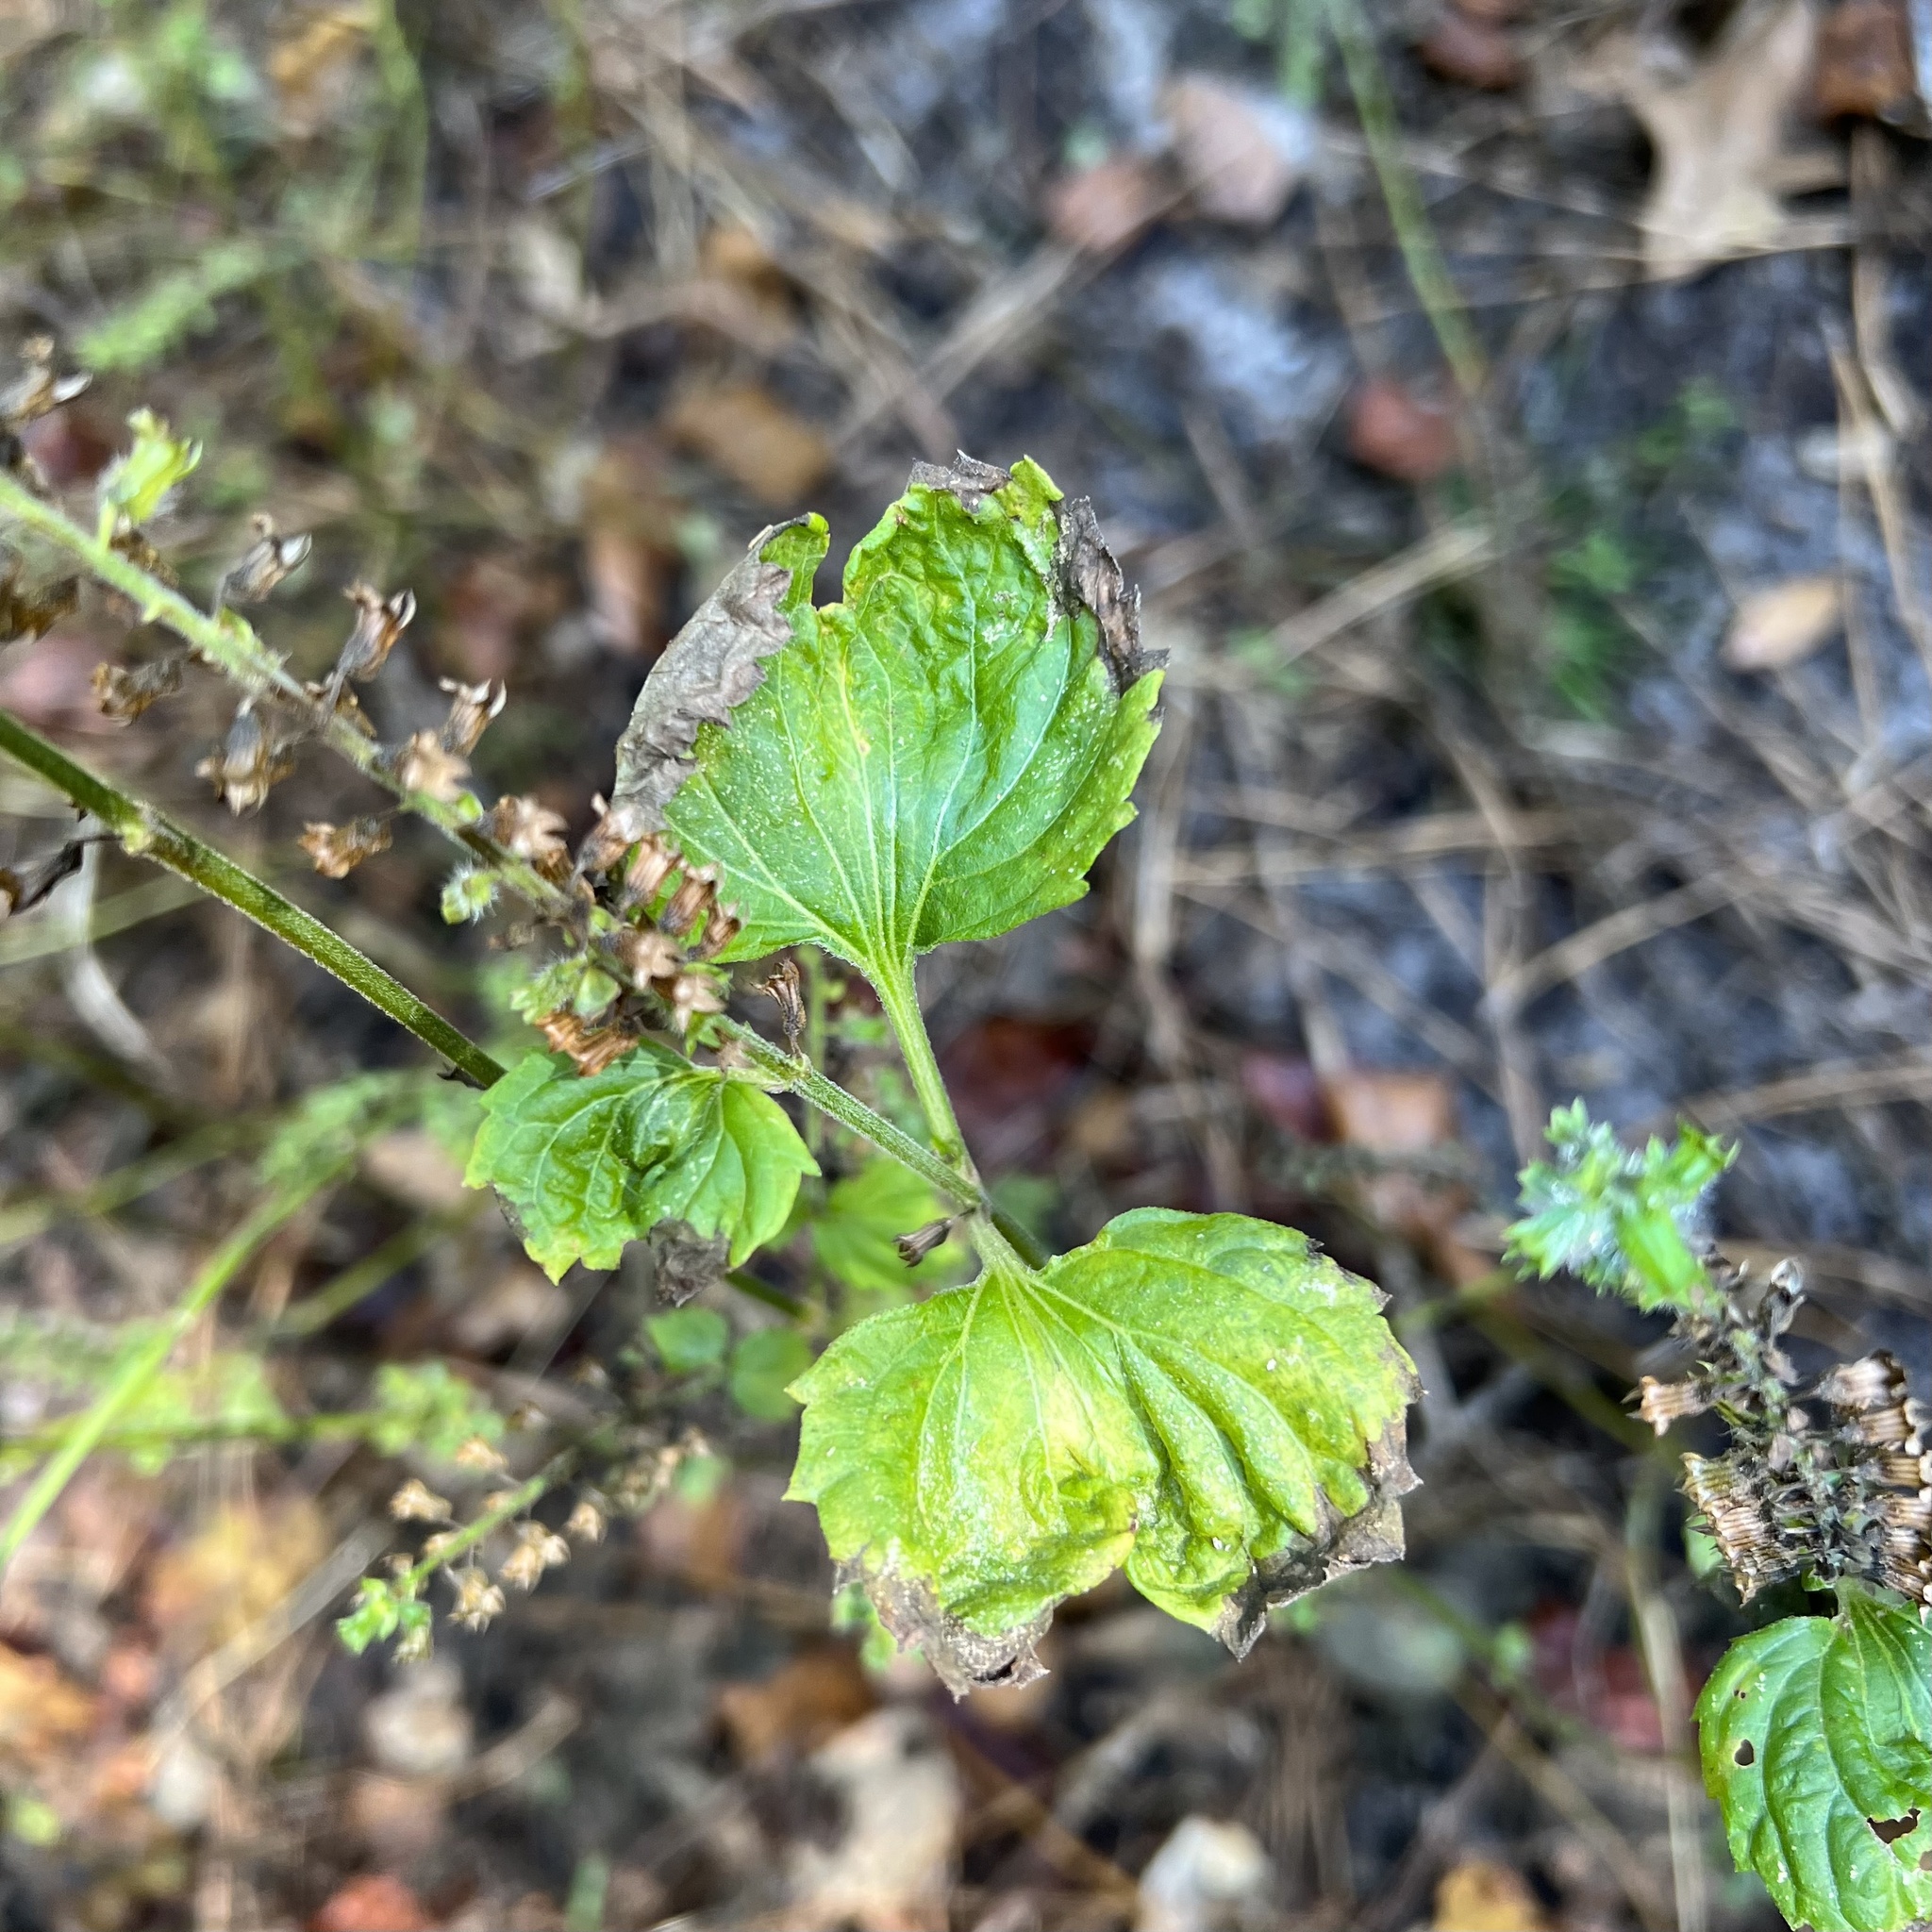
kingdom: Plantae
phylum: Tracheophyta
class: Magnoliopsida
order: Lamiales
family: Lamiaceae
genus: Perilla
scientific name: Perilla frutescens
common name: Perilla
